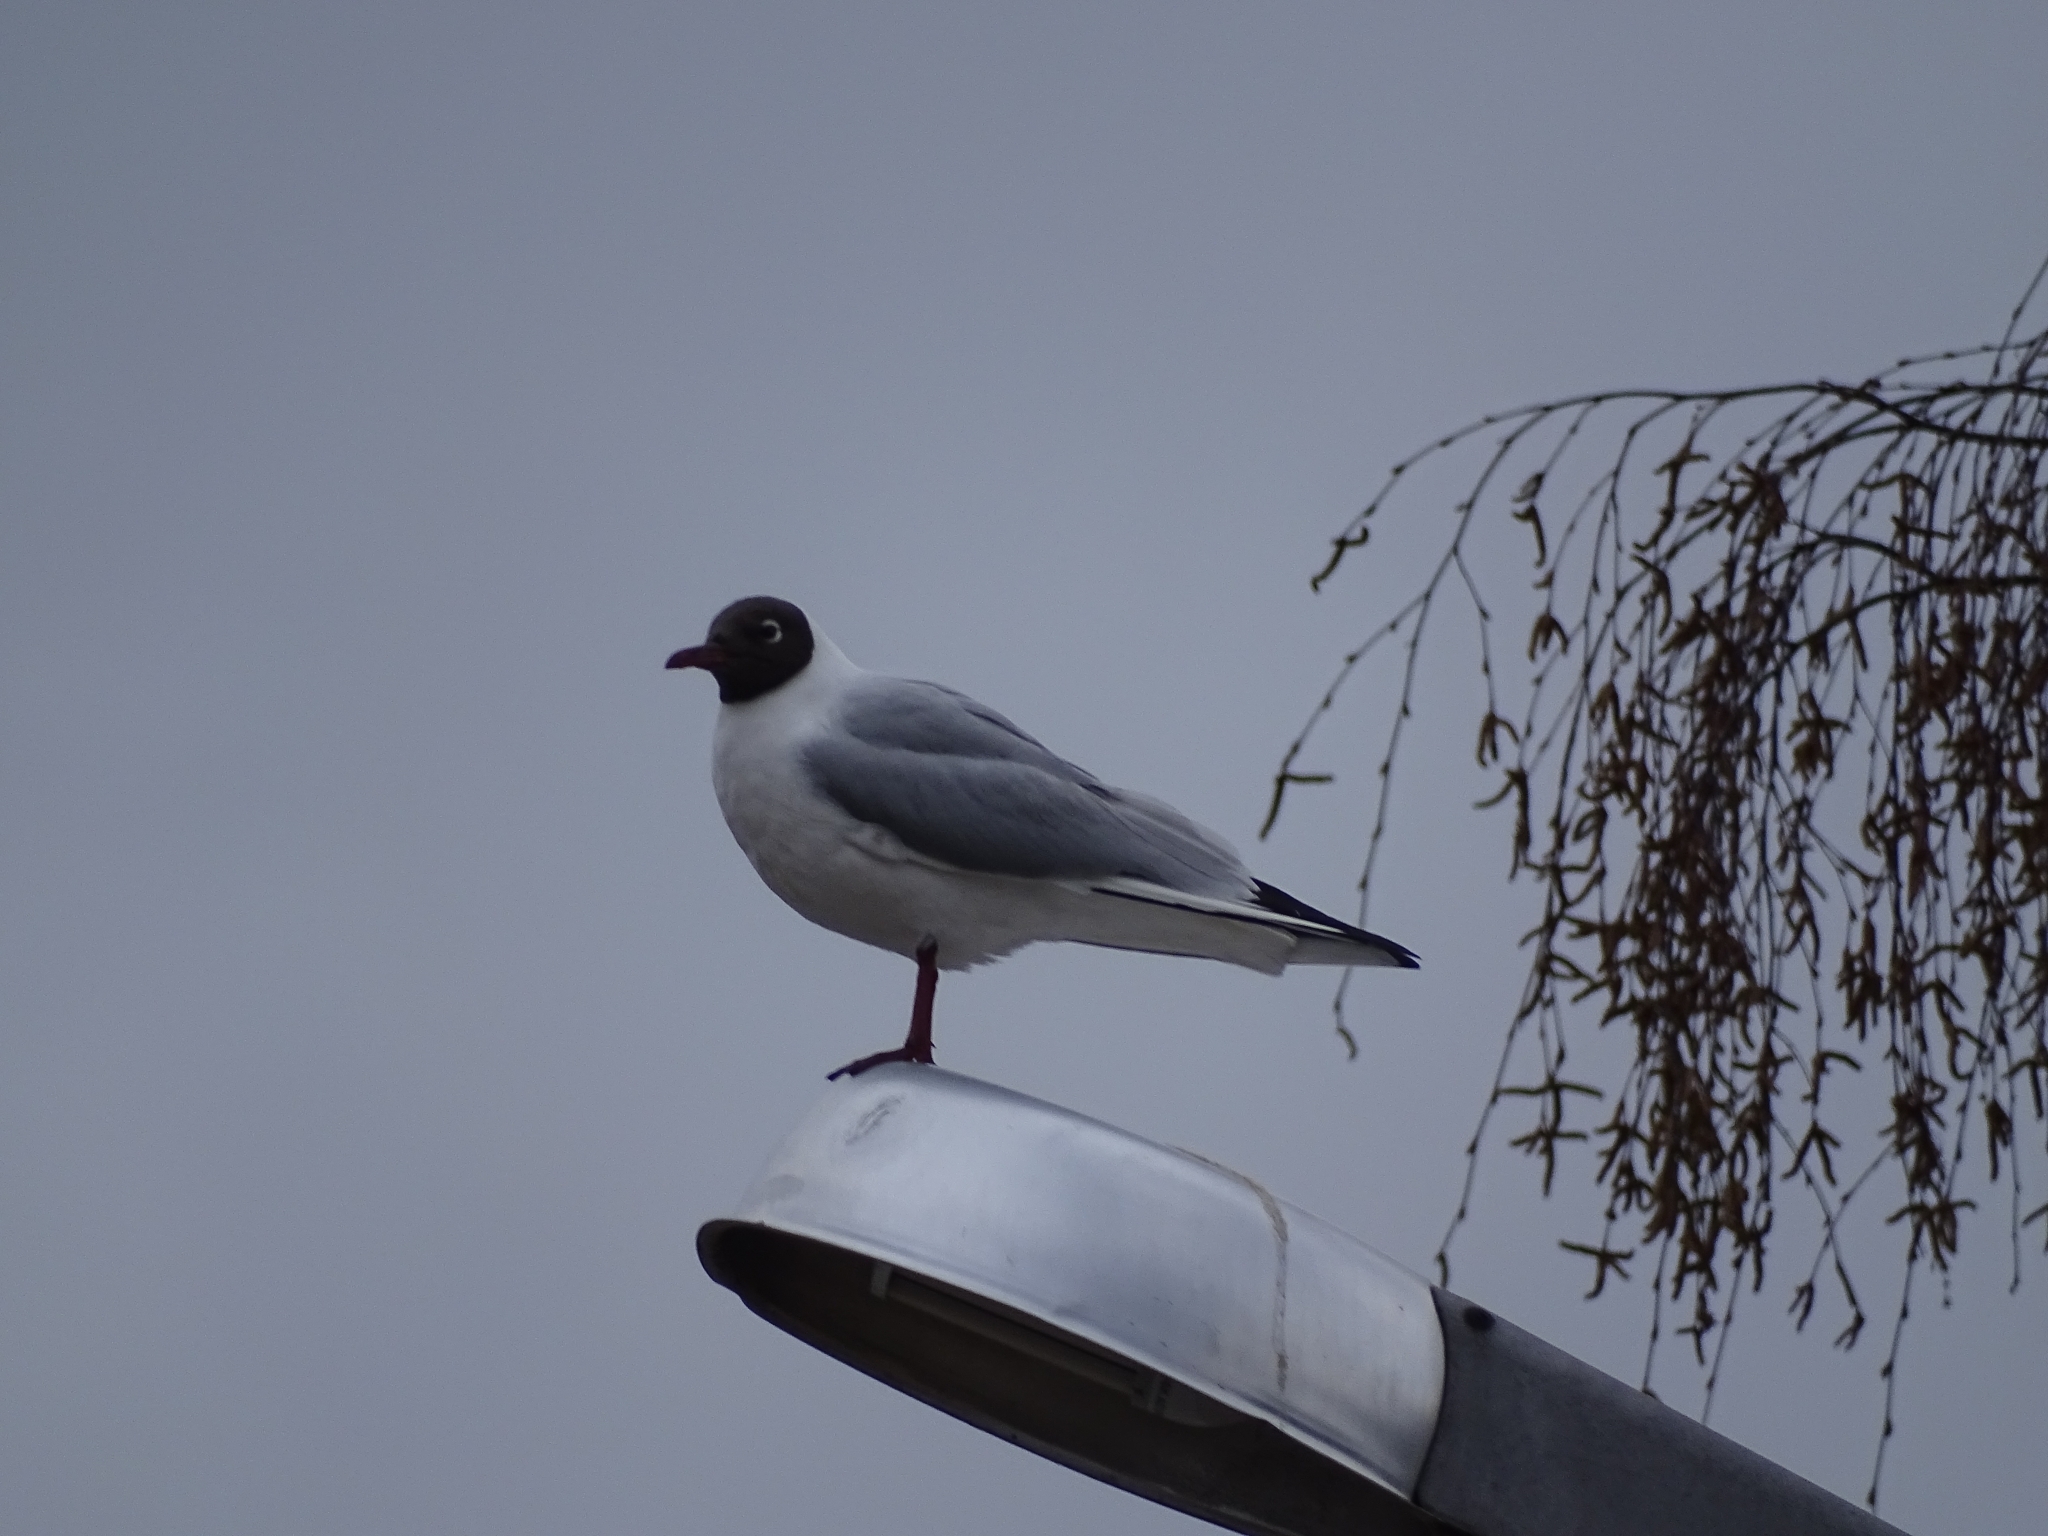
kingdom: Animalia
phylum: Chordata
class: Aves
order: Charadriiformes
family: Laridae
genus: Chroicocephalus
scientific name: Chroicocephalus ridibundus
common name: Black-headed gull
